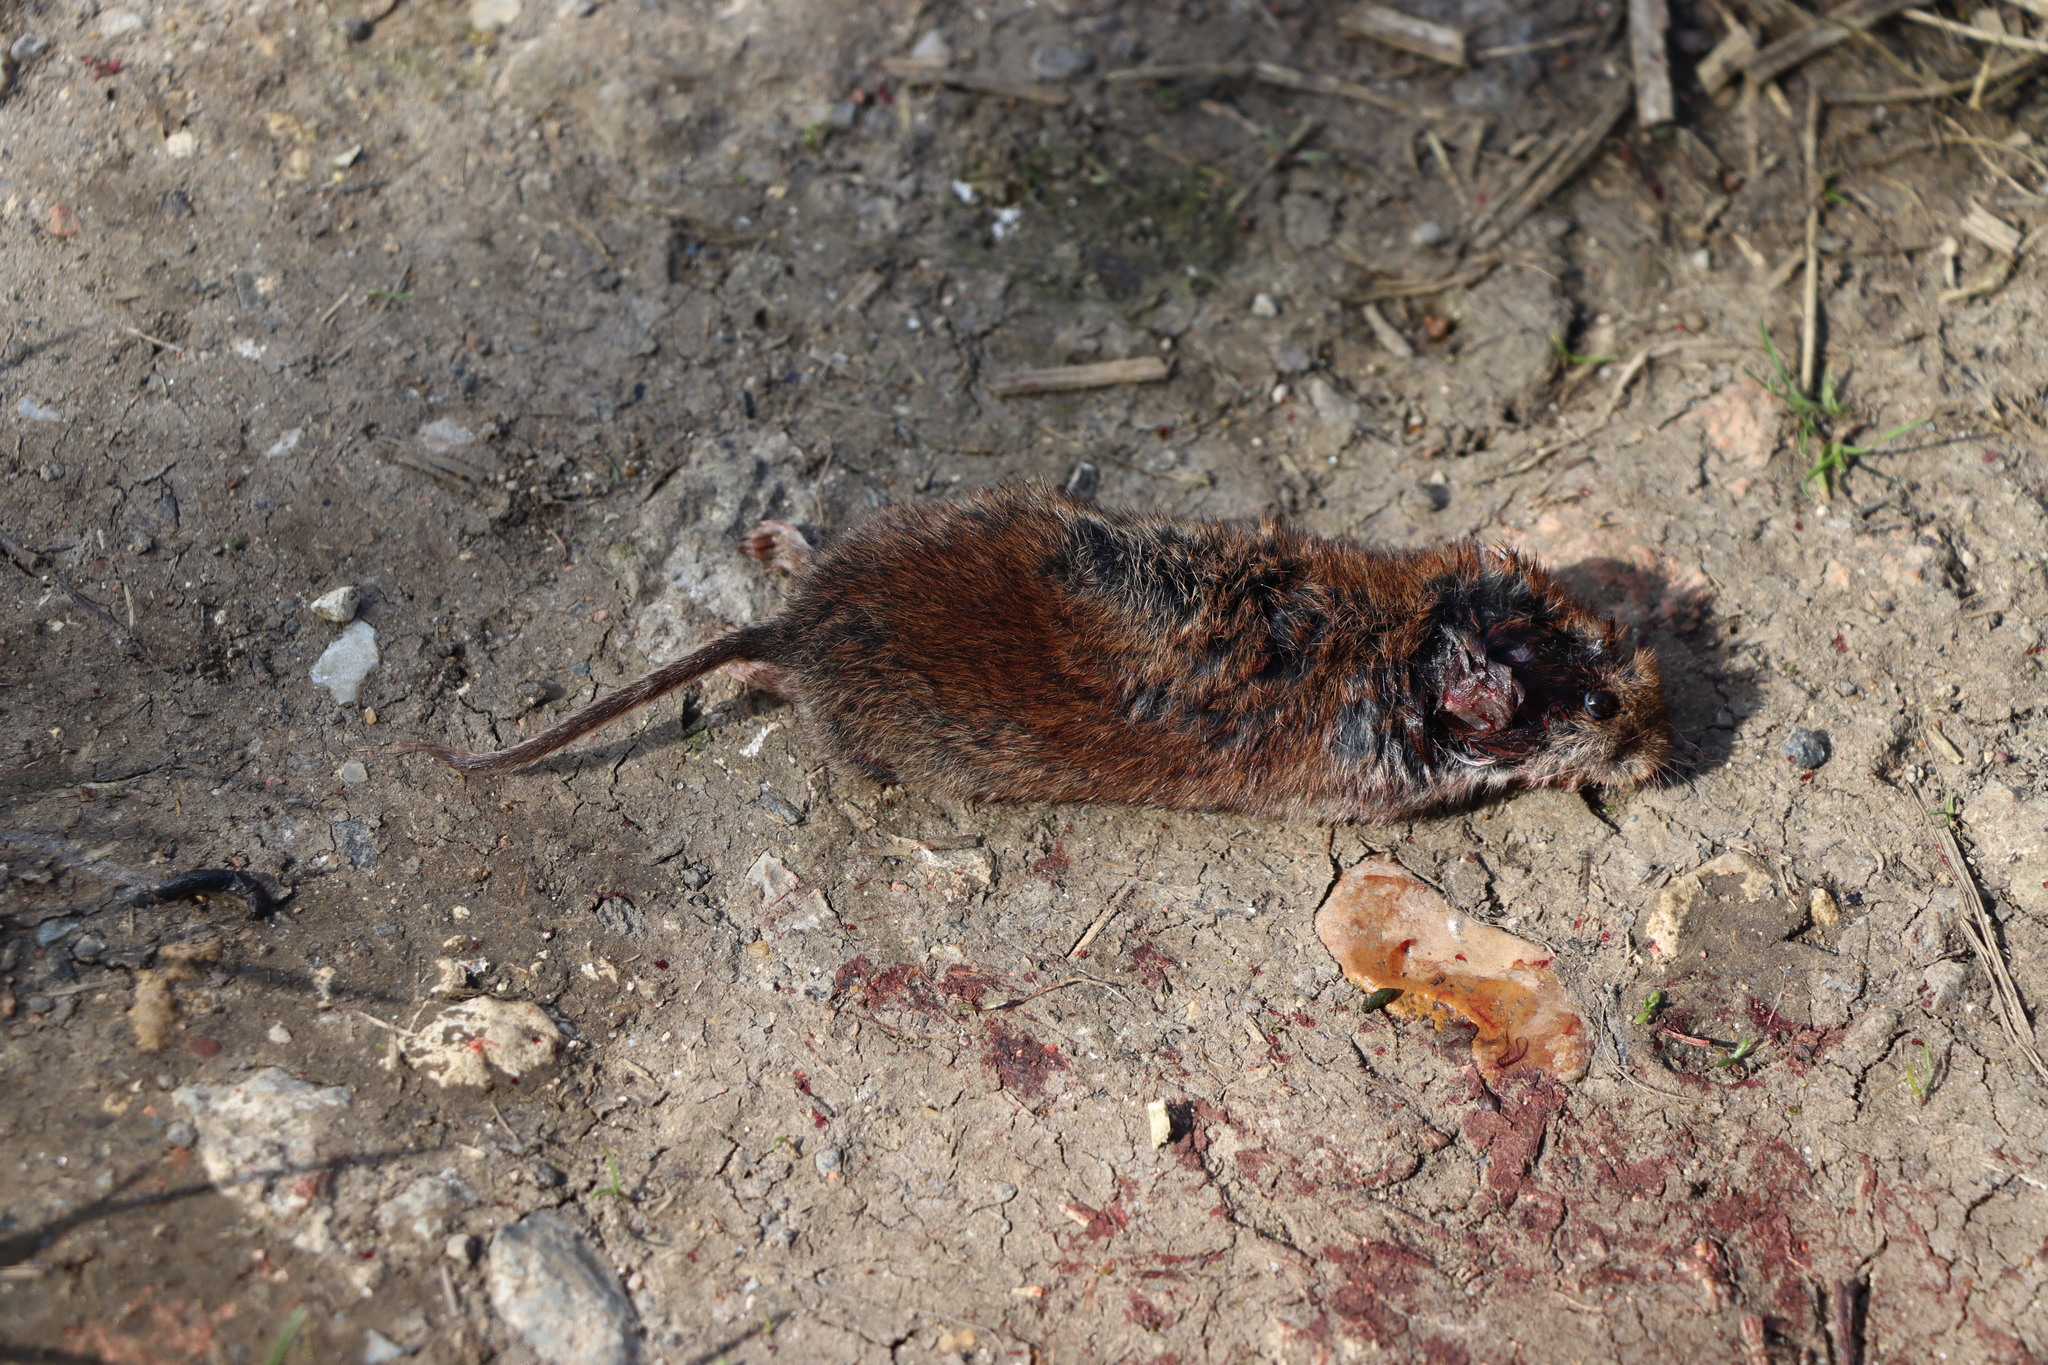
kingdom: Animalia
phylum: Chordata
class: Mammalia
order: Rodentia
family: Cricetidae
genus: Myodes
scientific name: Myodes glareolus
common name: Bank vole
